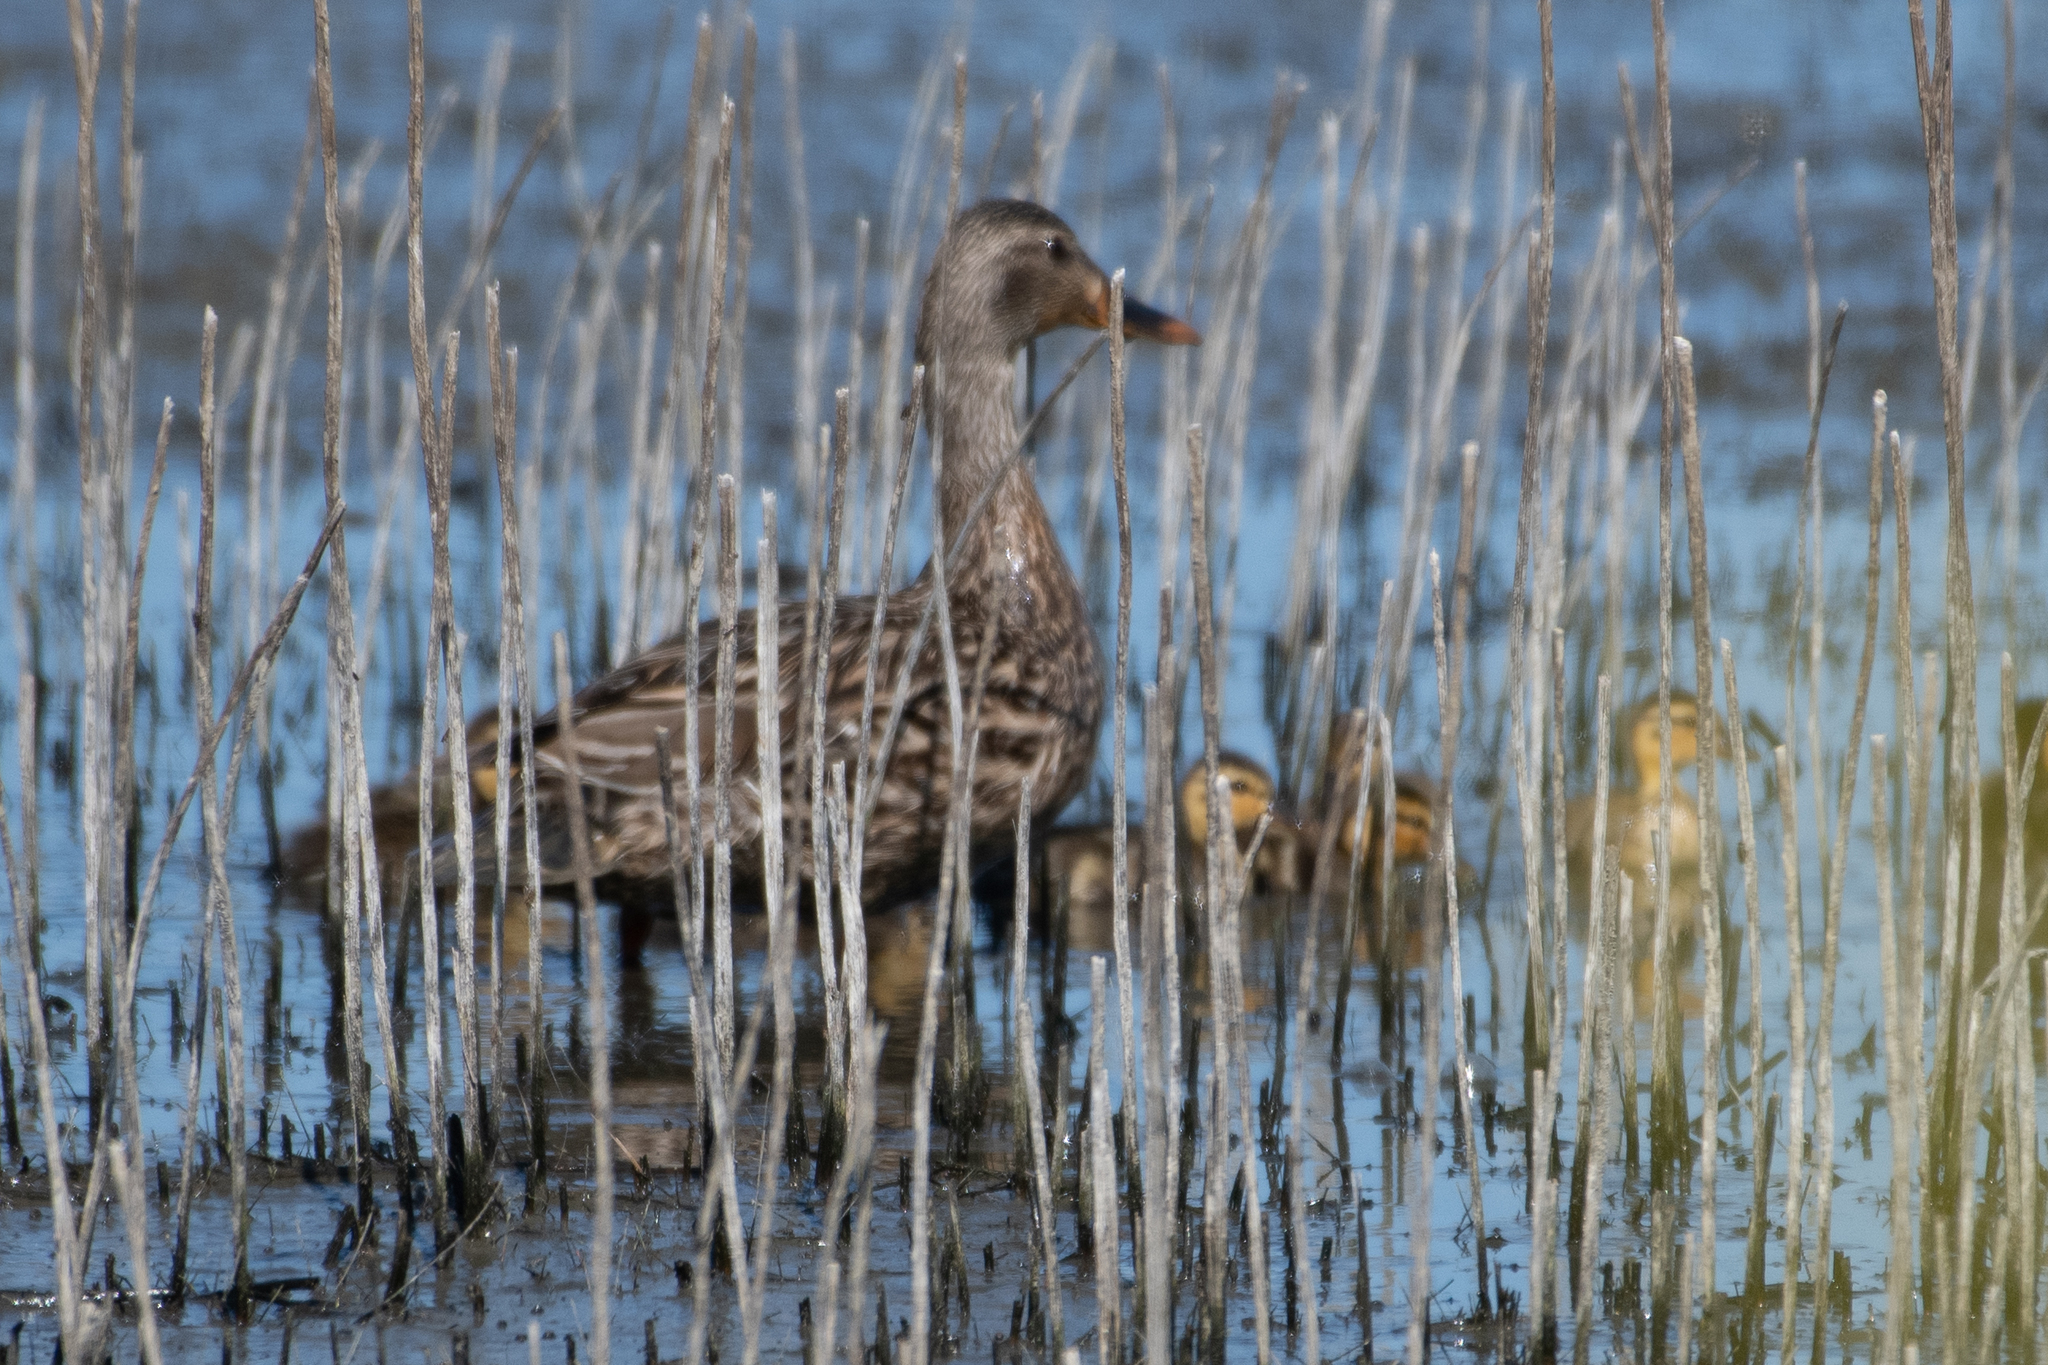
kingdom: Animalia
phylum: Chordata
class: Aves
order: Anseriformes
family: Anatidae
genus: Anas
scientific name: Anas platyrhynchos
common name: Mallard
